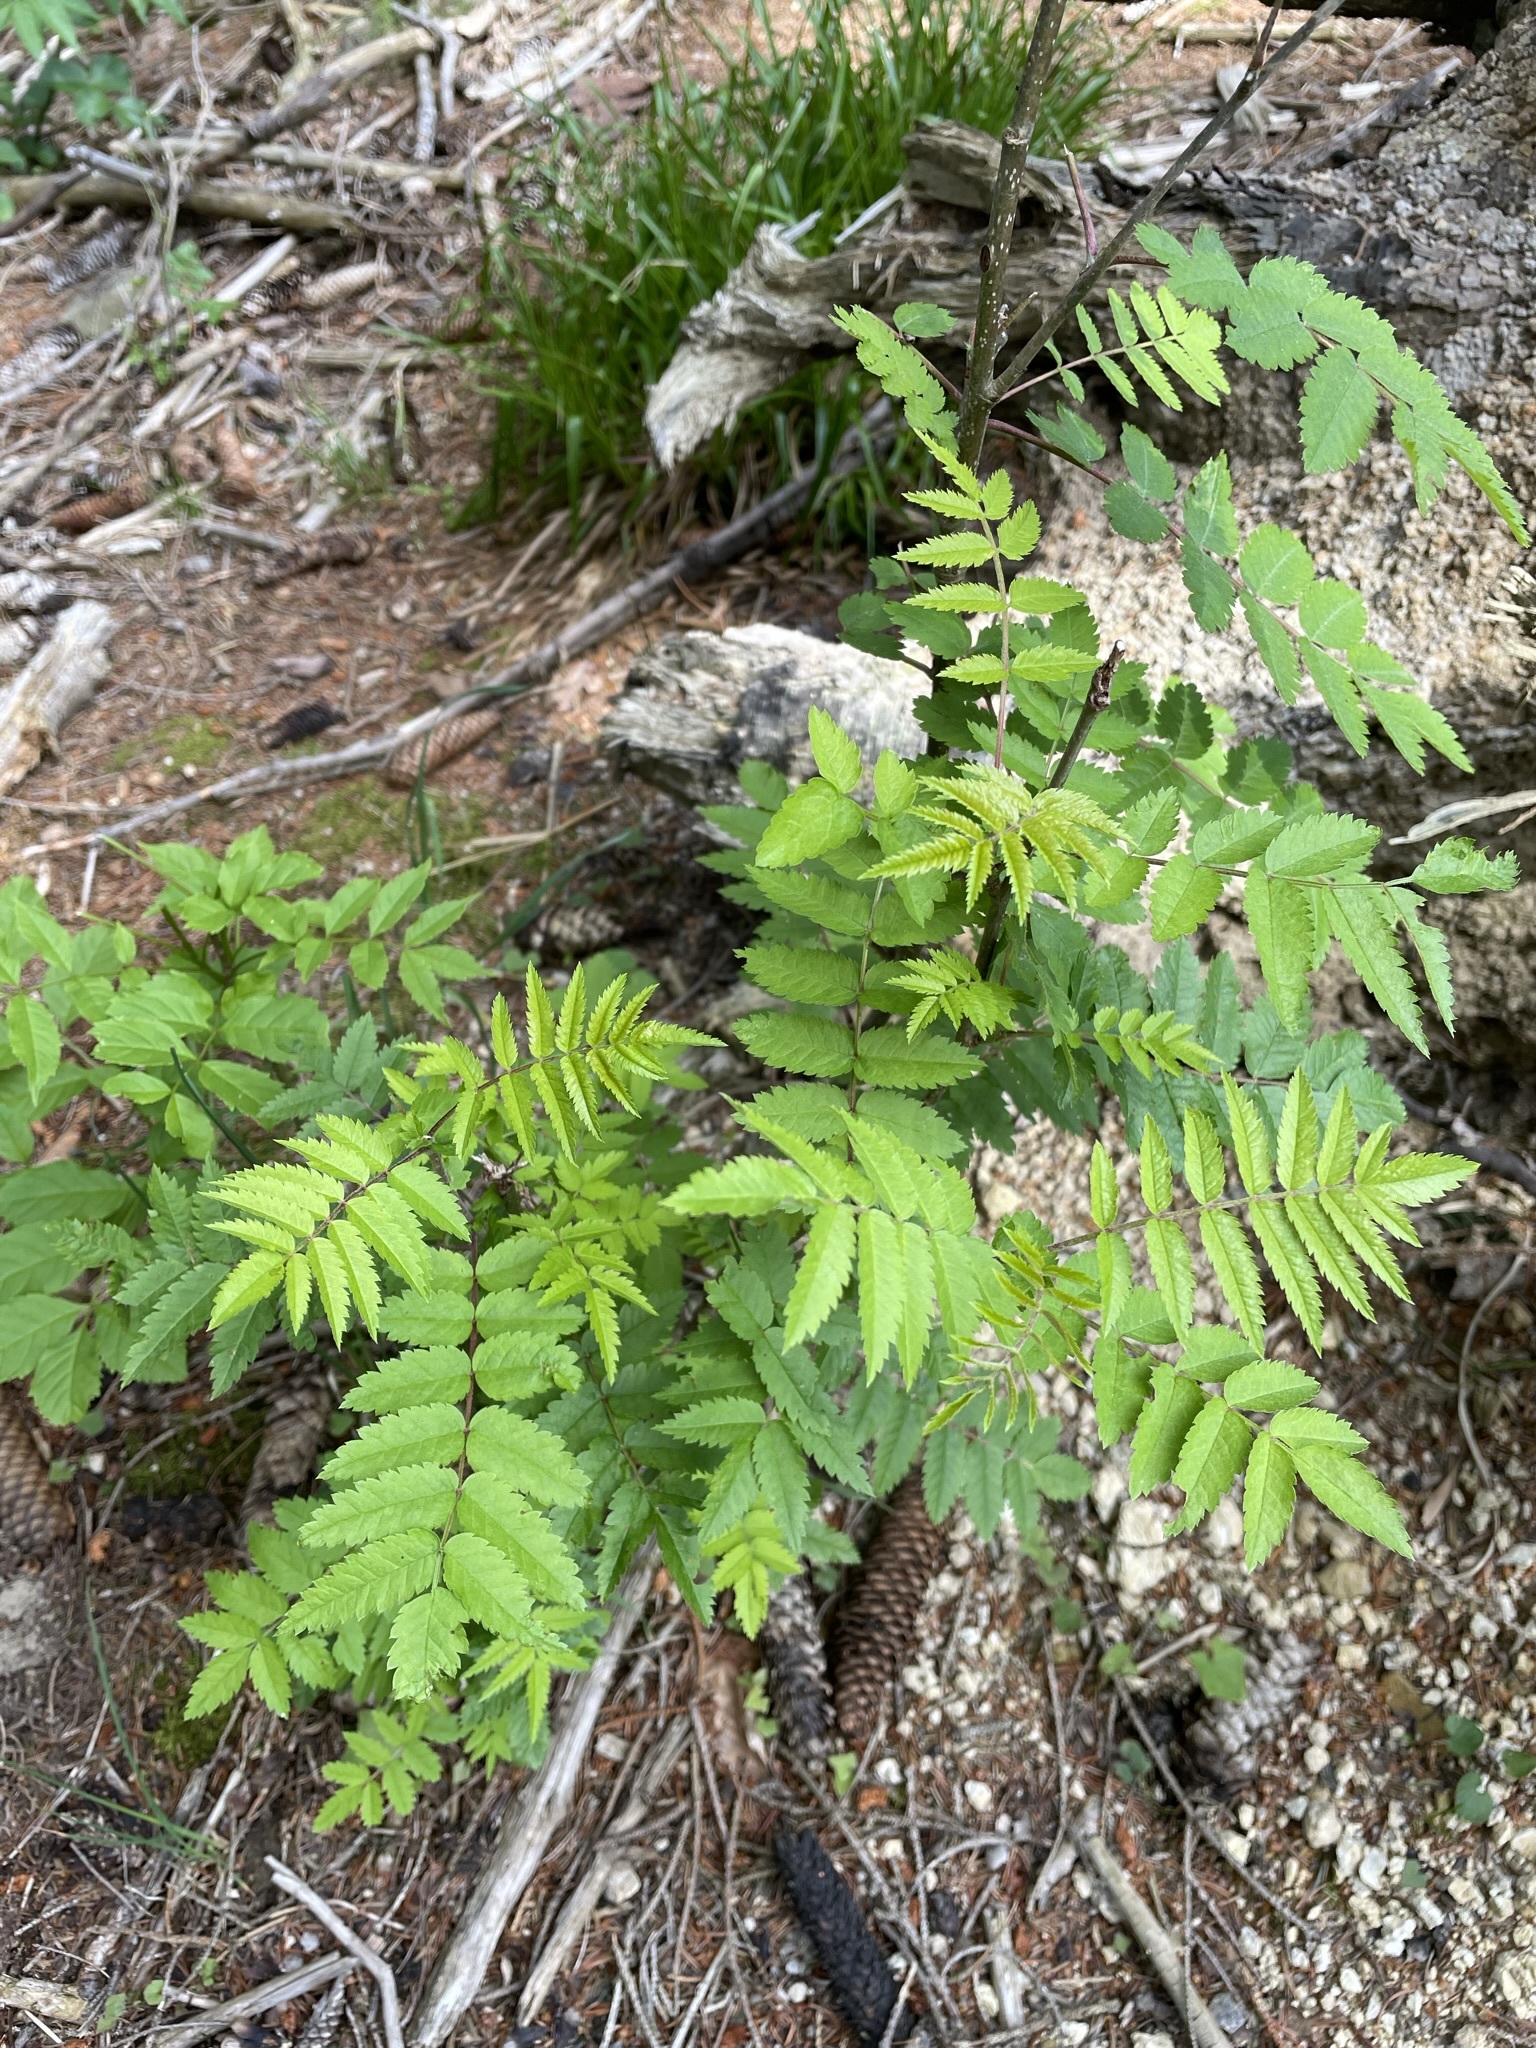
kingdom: Plantae
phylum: Tracheophyta
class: Magnoliopsida
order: Rosales
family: Rosaceae
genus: Sorbus
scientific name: Sorbus aucuparia
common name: Rowan
